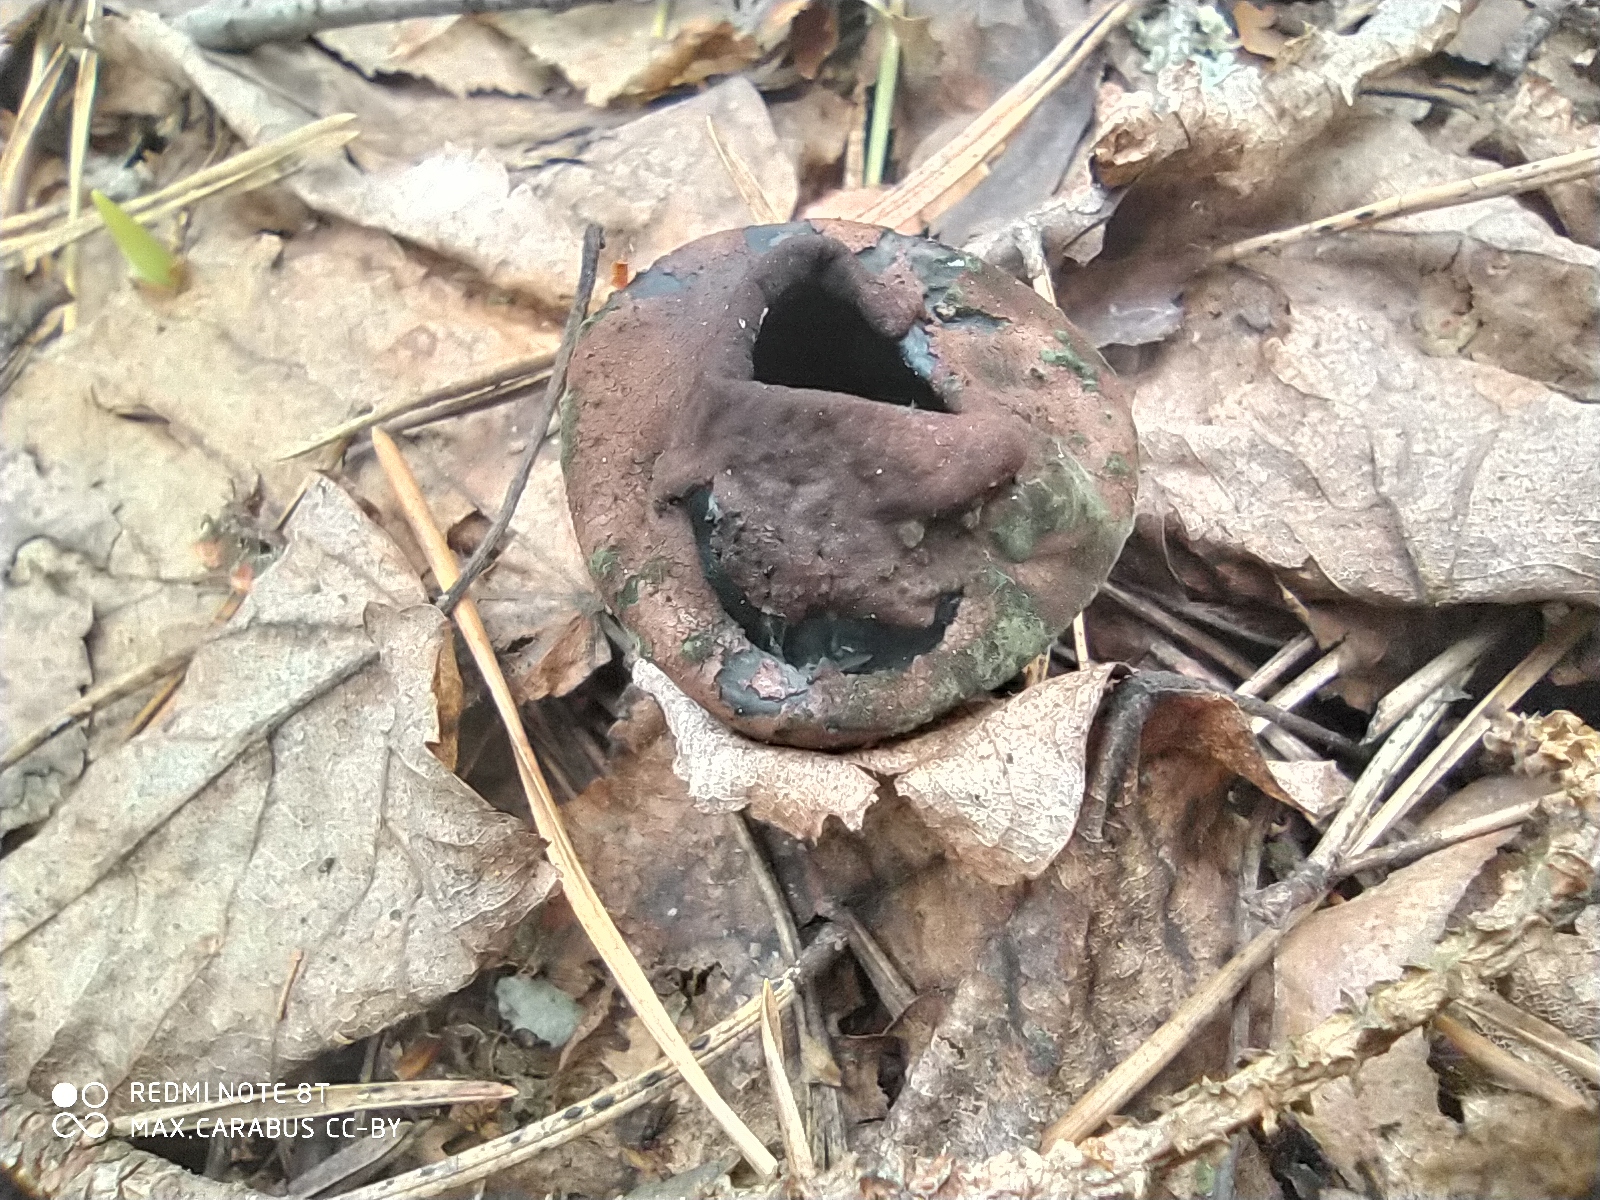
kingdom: Fungi
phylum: Ascomycota
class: Pezizomycetes
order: Pezizales
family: Sarcosomataceae
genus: Urnula
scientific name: Urnula craterium
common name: Devil's urn
